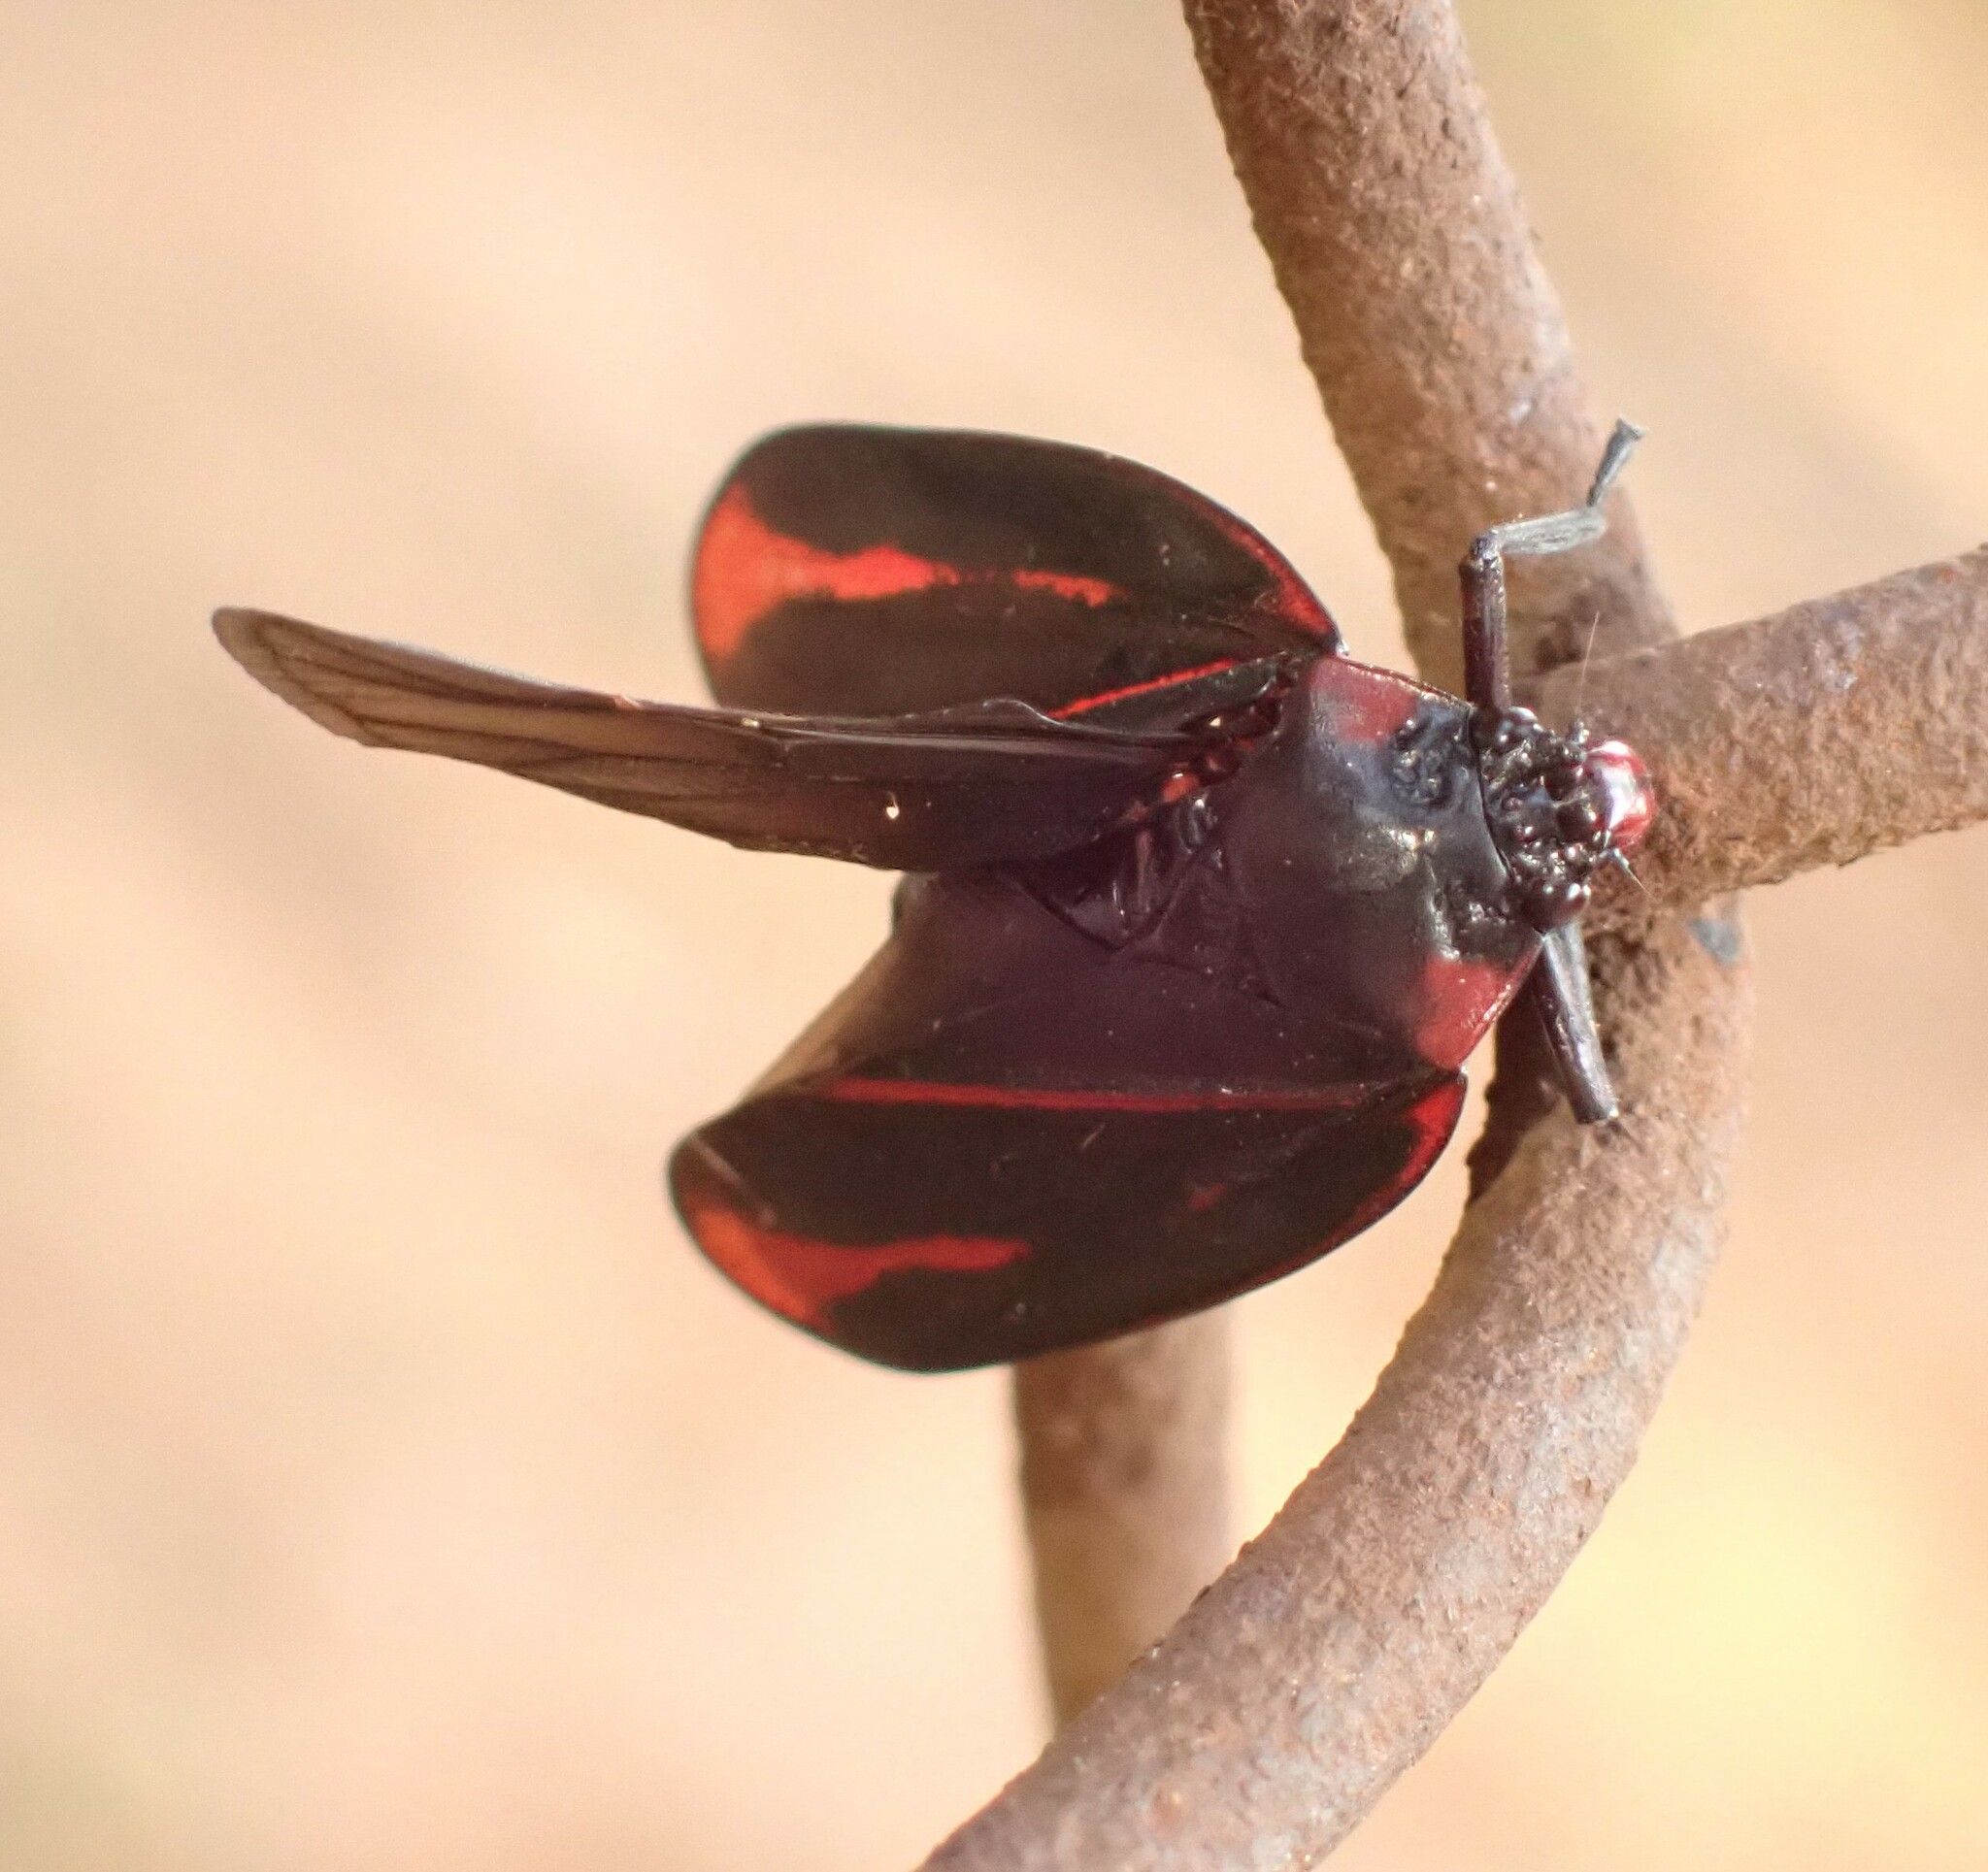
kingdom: Animalia
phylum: Arthropoda
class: Insecta
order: Hemiptera
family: Cercopidae
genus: Tomaspis
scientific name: Tomaspis furcata
